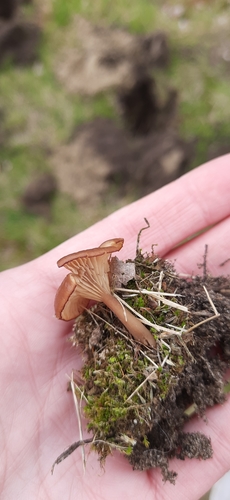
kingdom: Fungi
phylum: Basidiomycota
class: Agaricomycetes
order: Agaricales
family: Tricholomataceae
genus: Clitocybe
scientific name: Clitocybe
